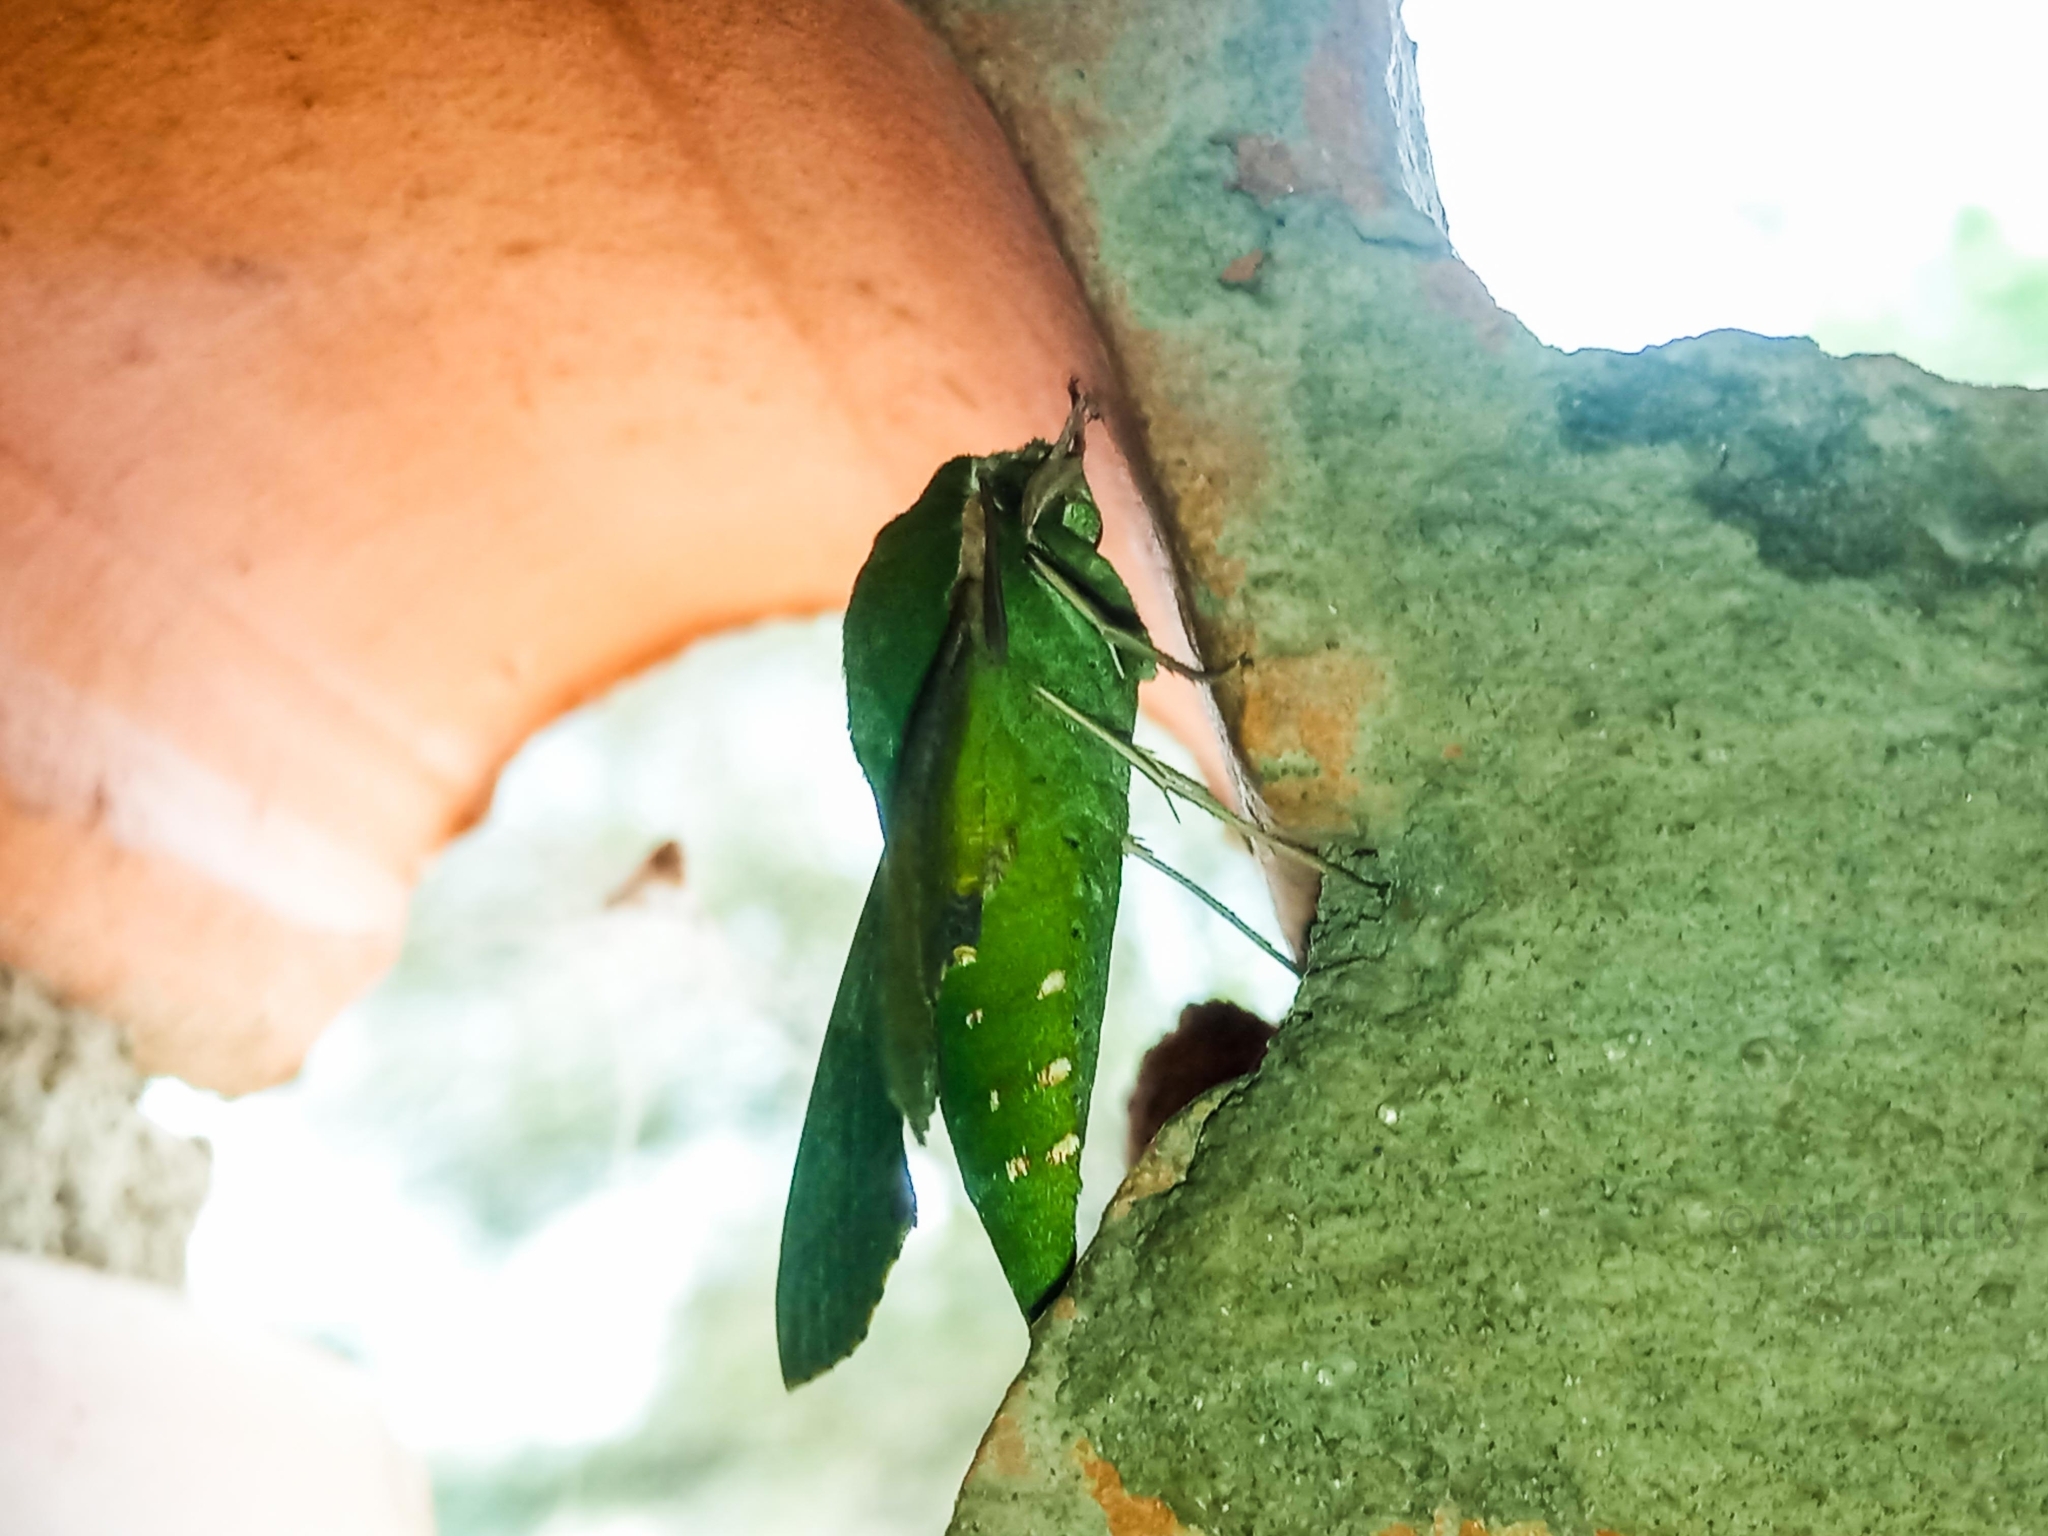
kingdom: Animalia
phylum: Arthropoda
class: Insecta
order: Lepidoptera
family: Sphingidae
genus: Basiothia
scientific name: Basiothia medea
